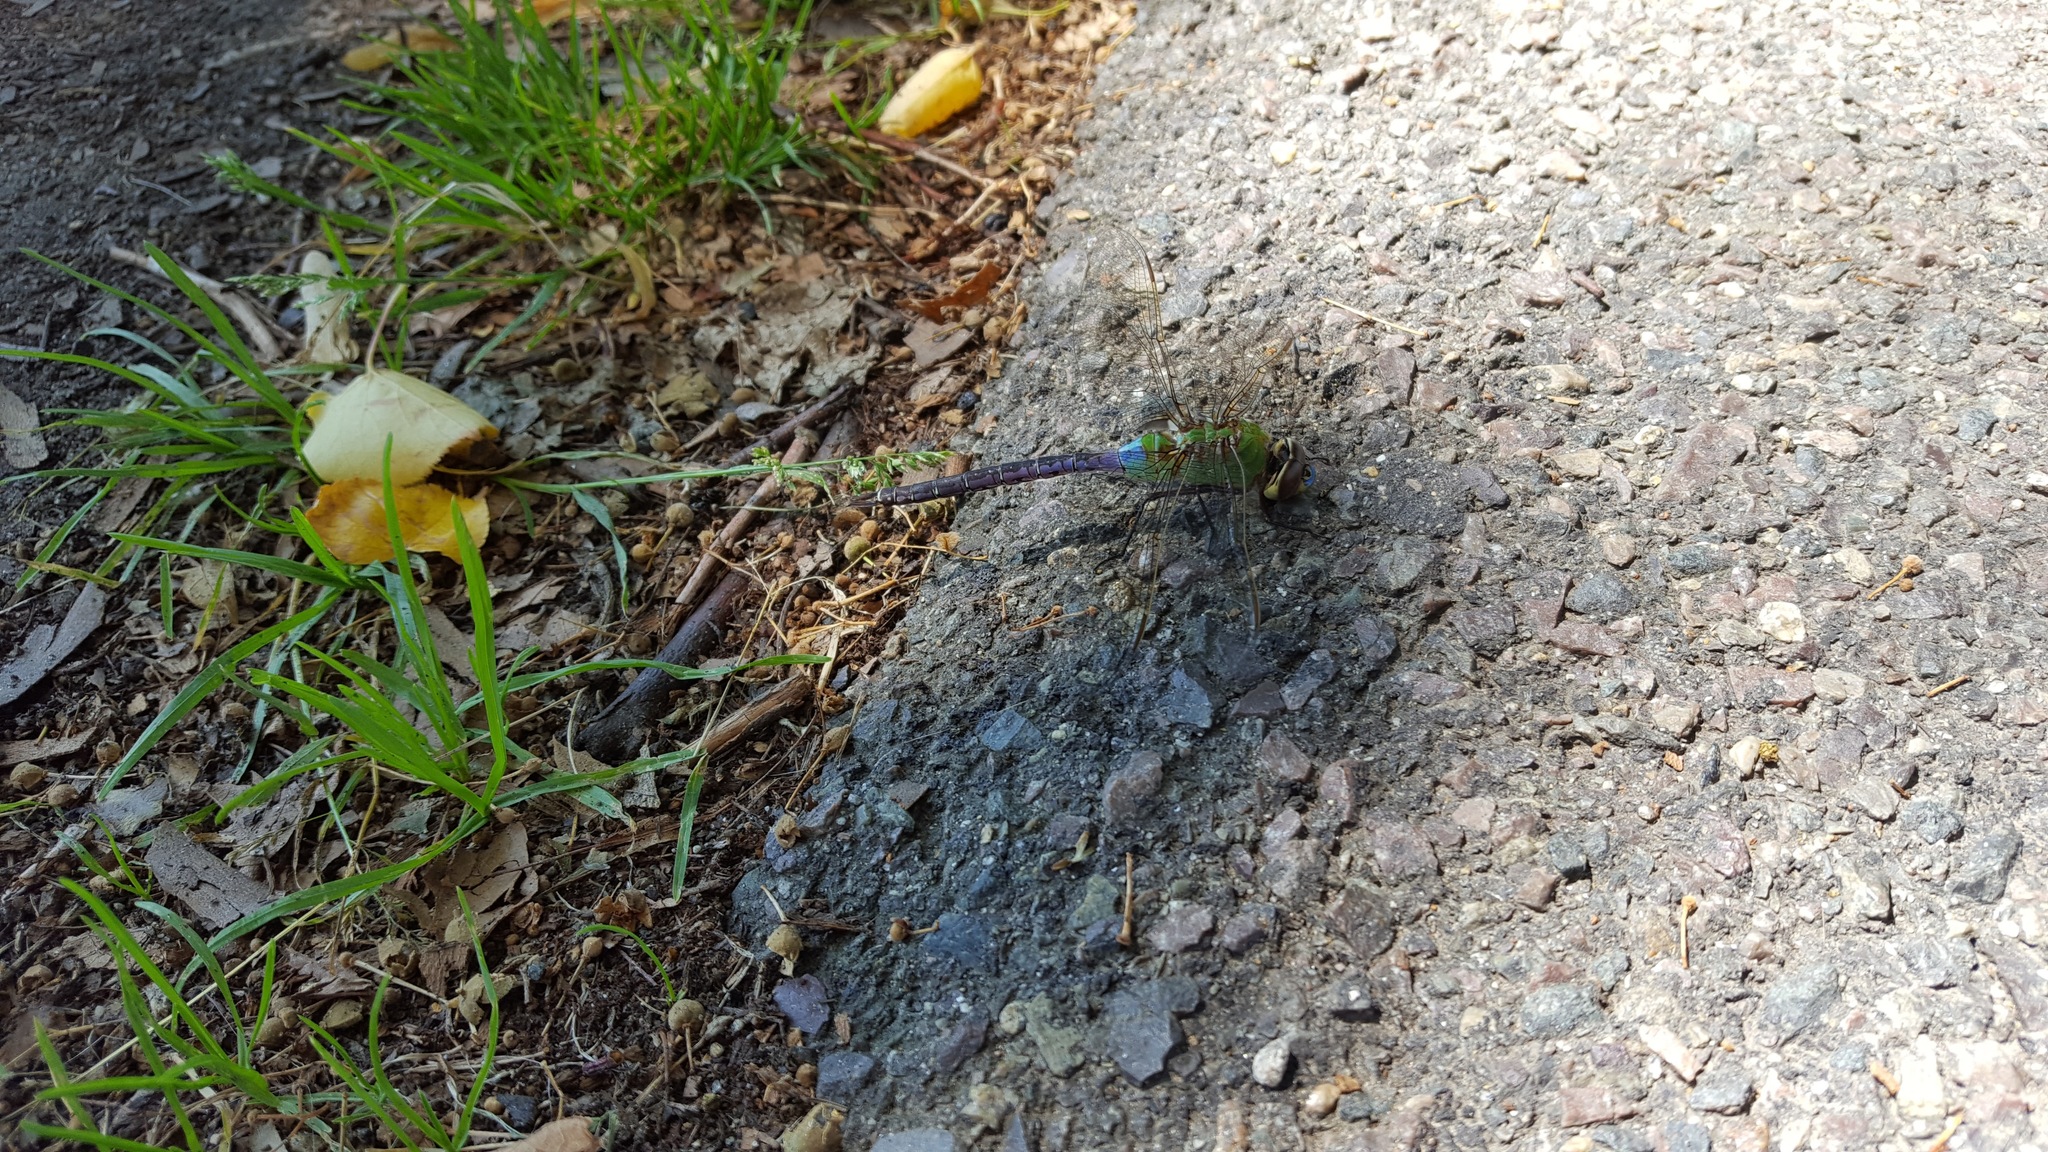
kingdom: Animalia
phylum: Arthropoda
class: Insecta
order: Odonata
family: Aeshnidae
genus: Anax
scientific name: Anax junius
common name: Common green darner
